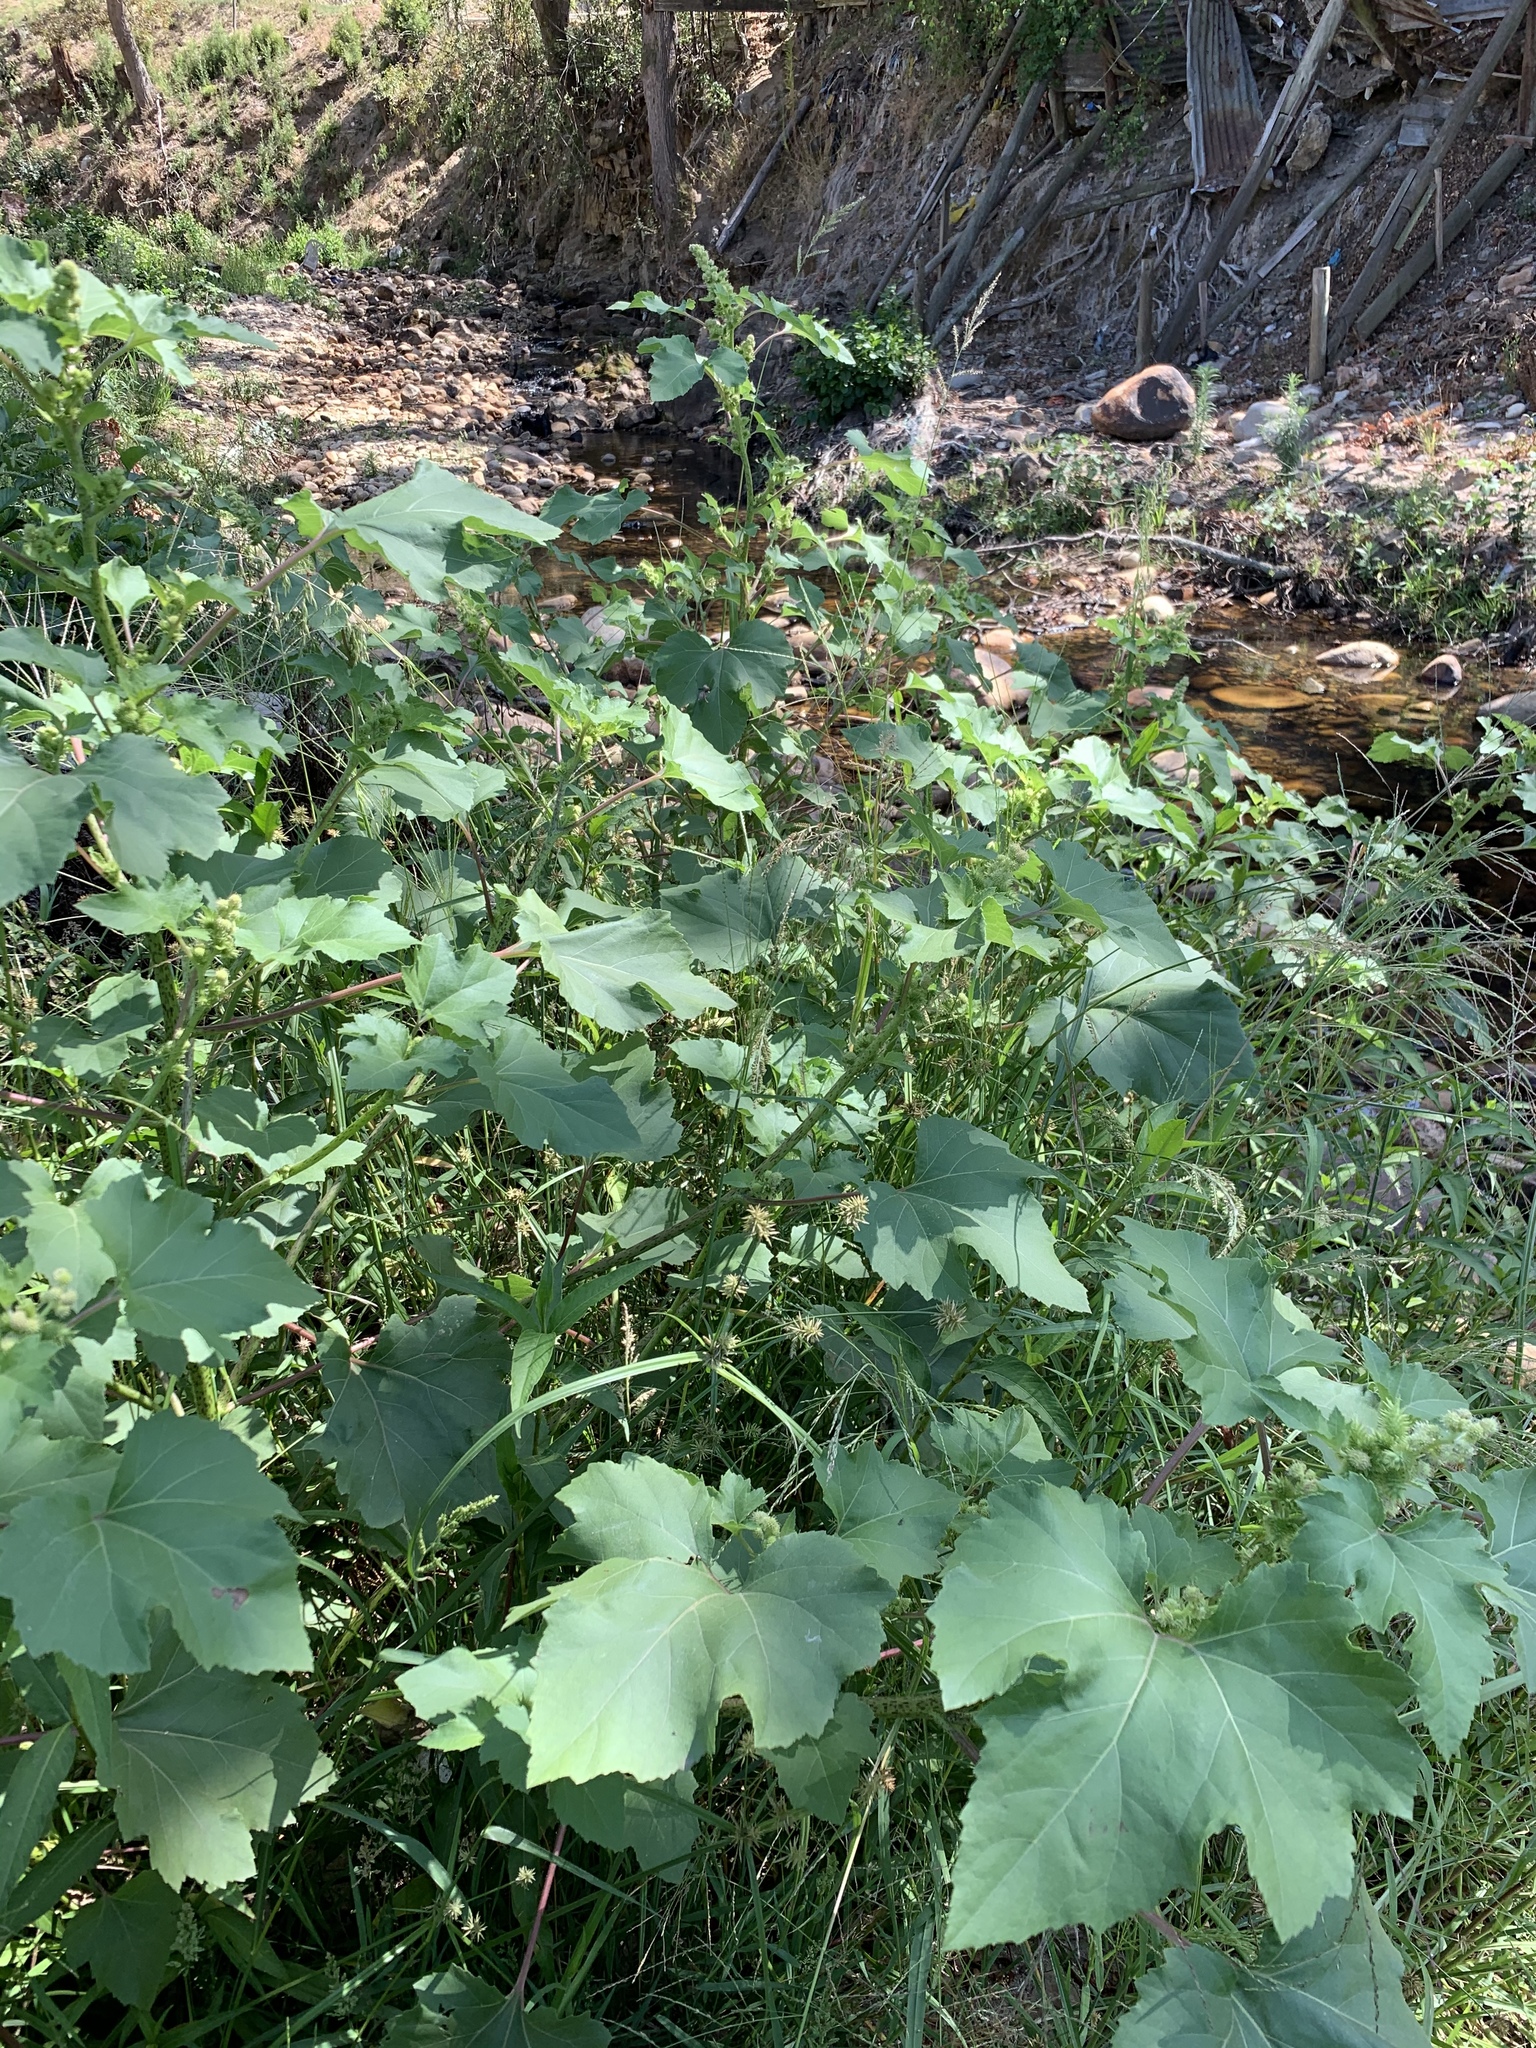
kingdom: Plantae
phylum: Tracheophyta
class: Magnoliopsida
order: Asterales
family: Asteraceae
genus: Xanthium
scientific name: Xanthium strumarium
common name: Rough cocklebur
